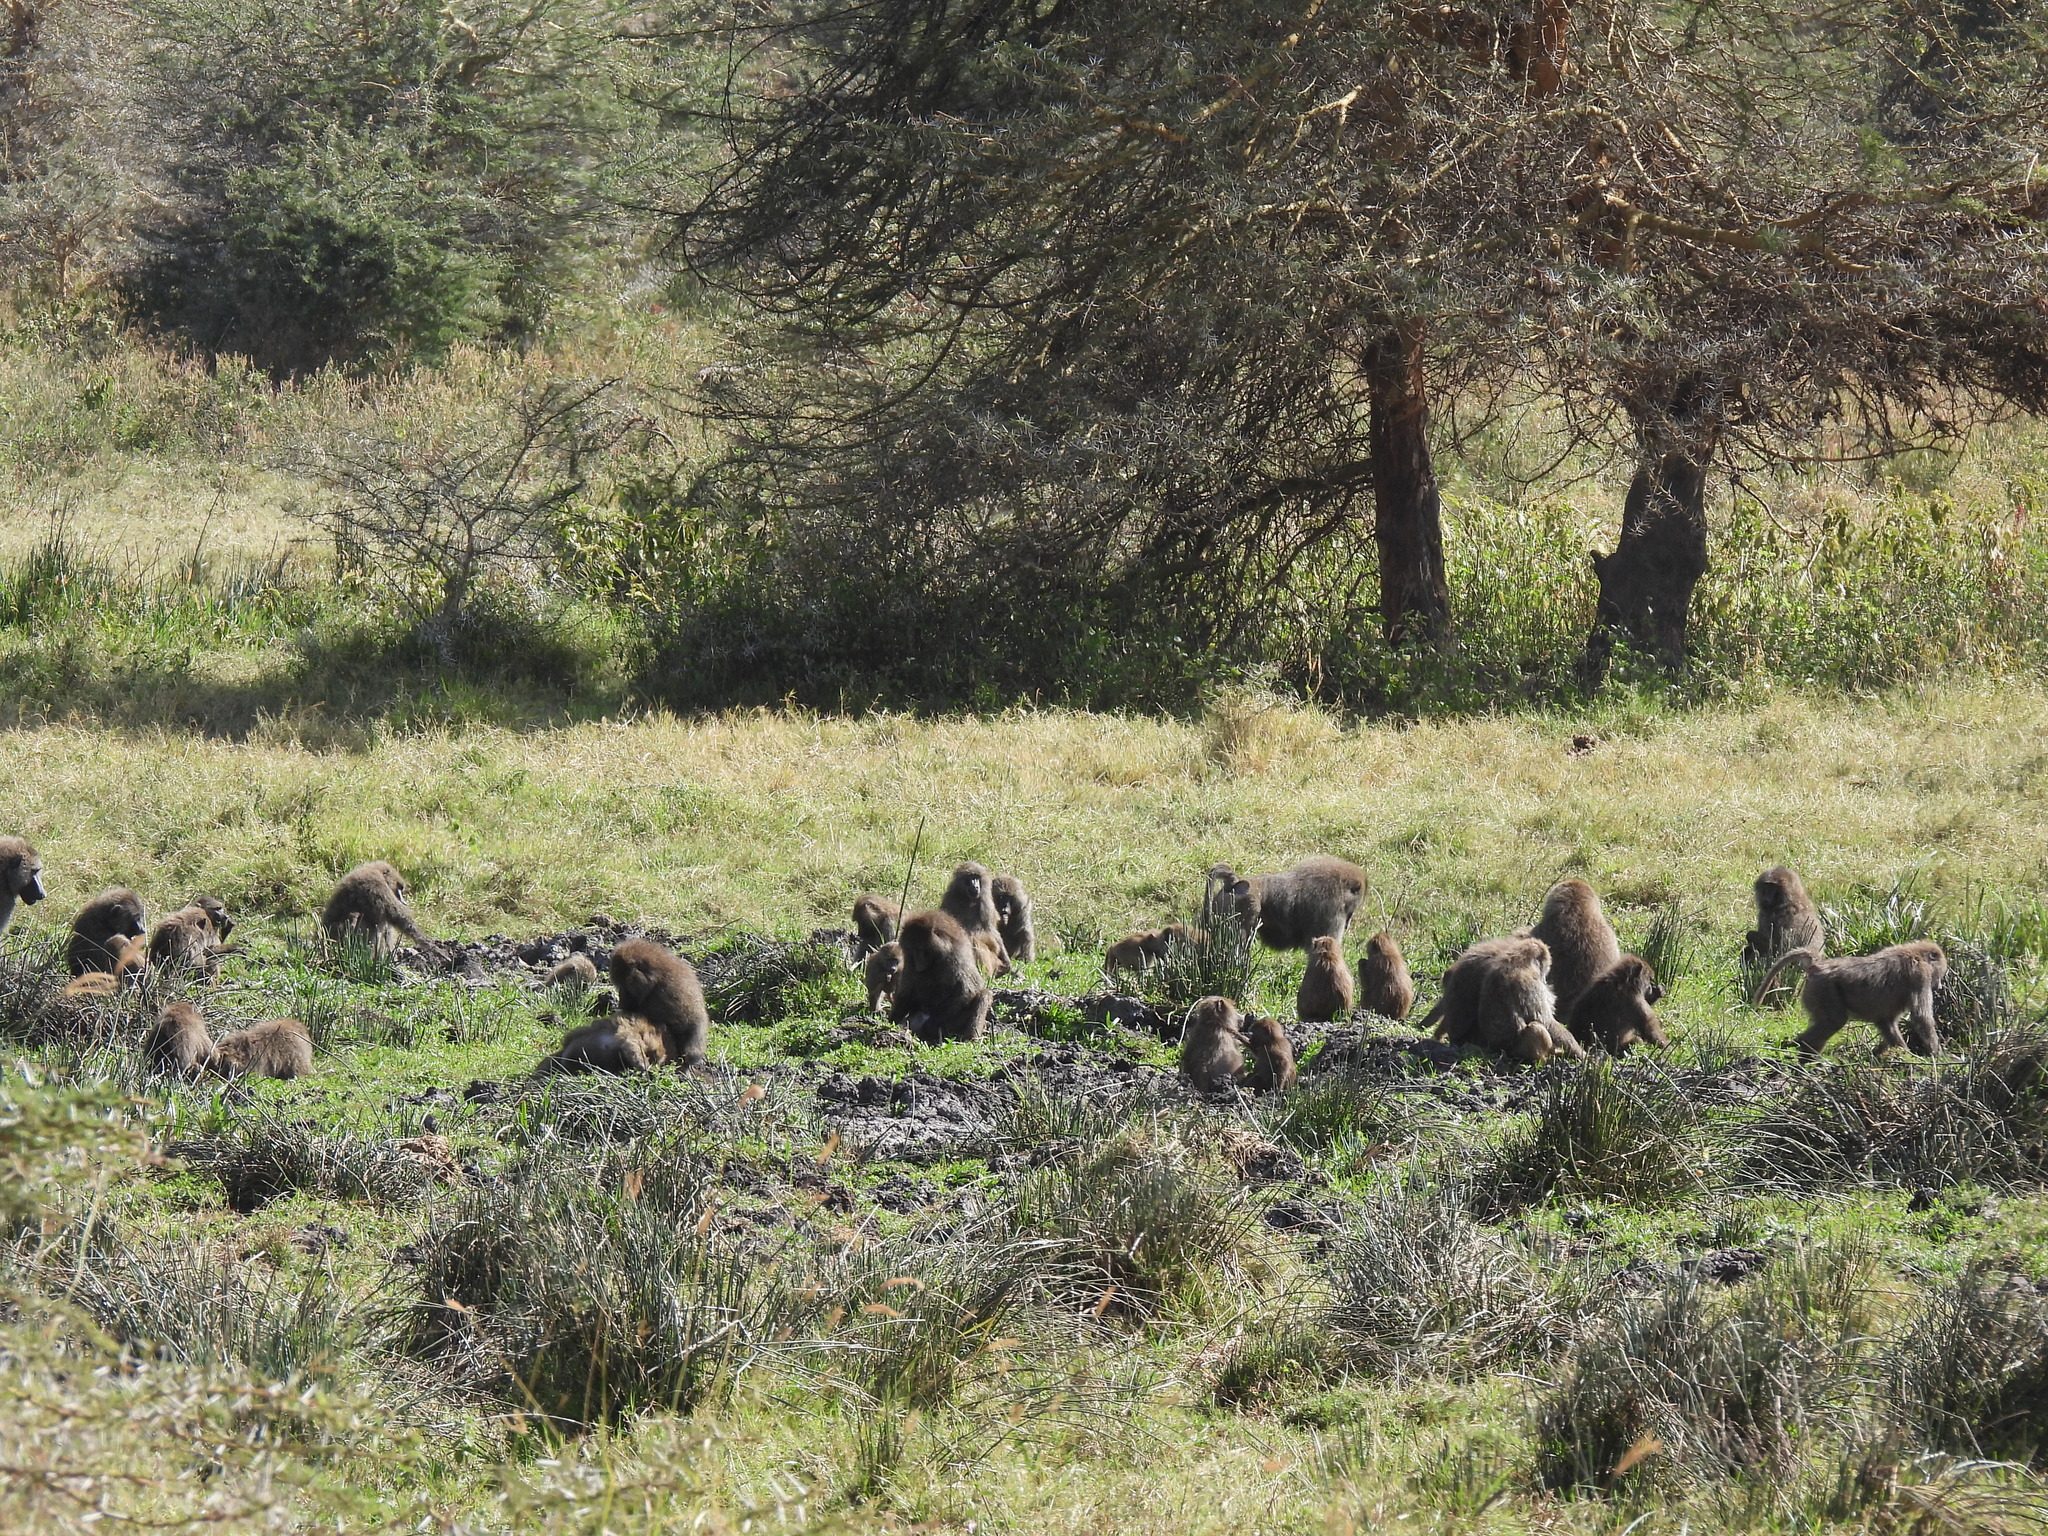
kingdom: Animalia
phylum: Chordata
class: Mammalia
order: Primates
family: Cercopithecidae
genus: Papio
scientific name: Papio anubis
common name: Olive baboon
